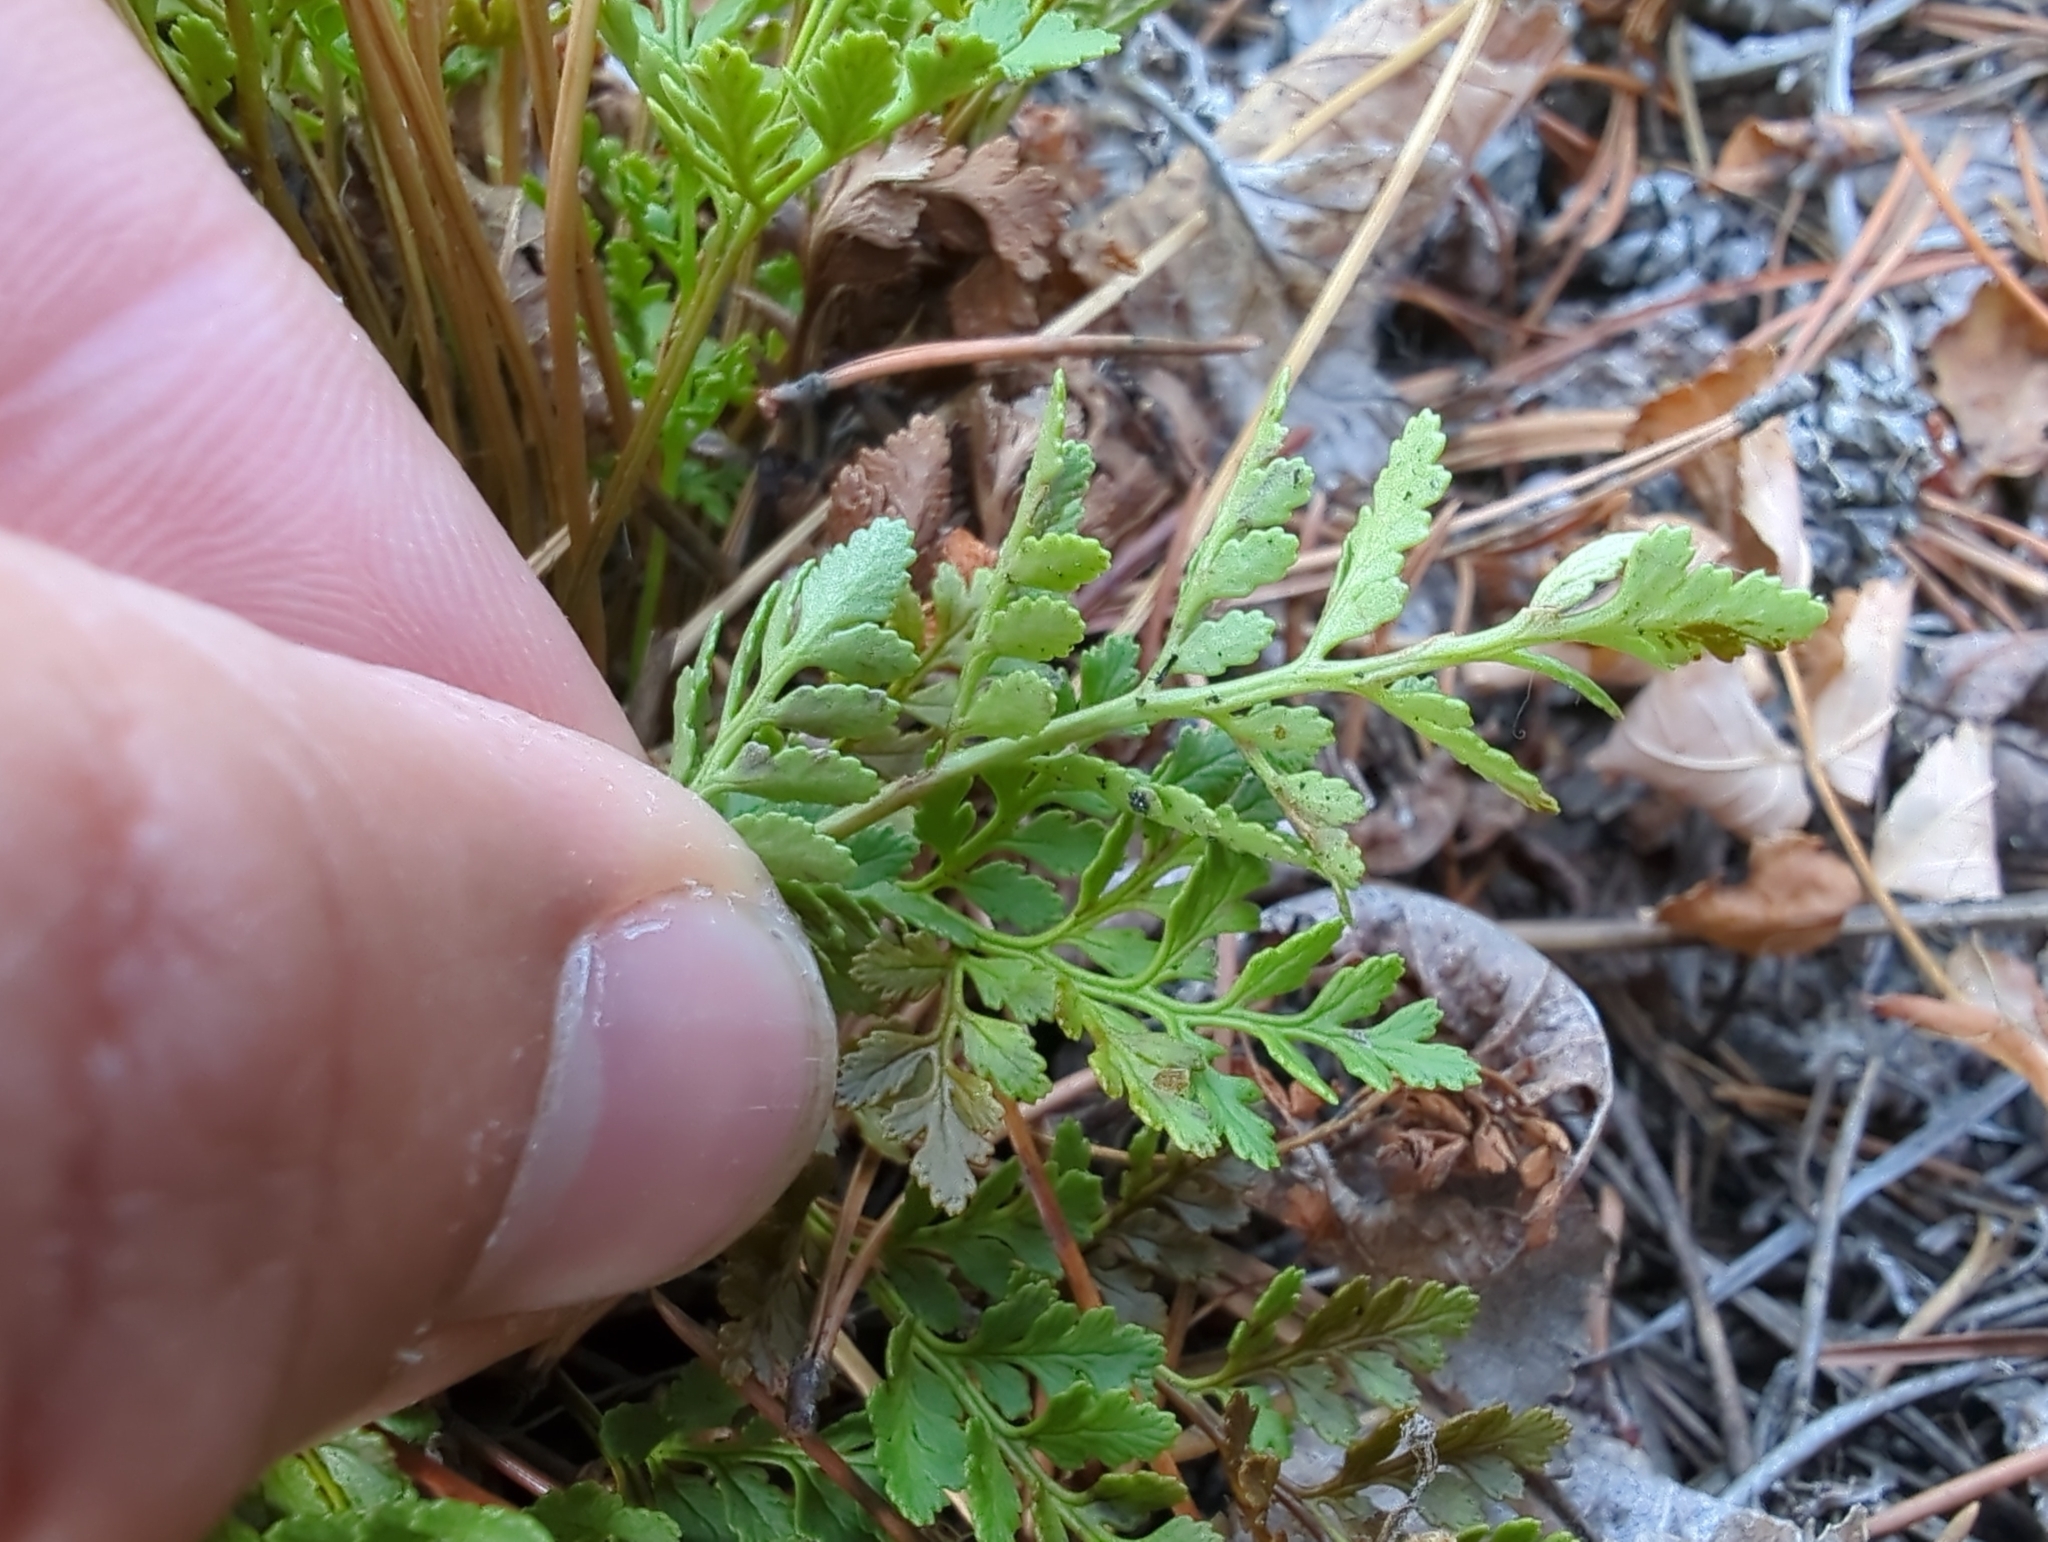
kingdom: Plantae
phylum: Tracheophyta
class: Polypodiopsida
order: Polypodiales
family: Pteridaceae
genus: Cryptogramma
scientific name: Cryptogramma acrostichoides
